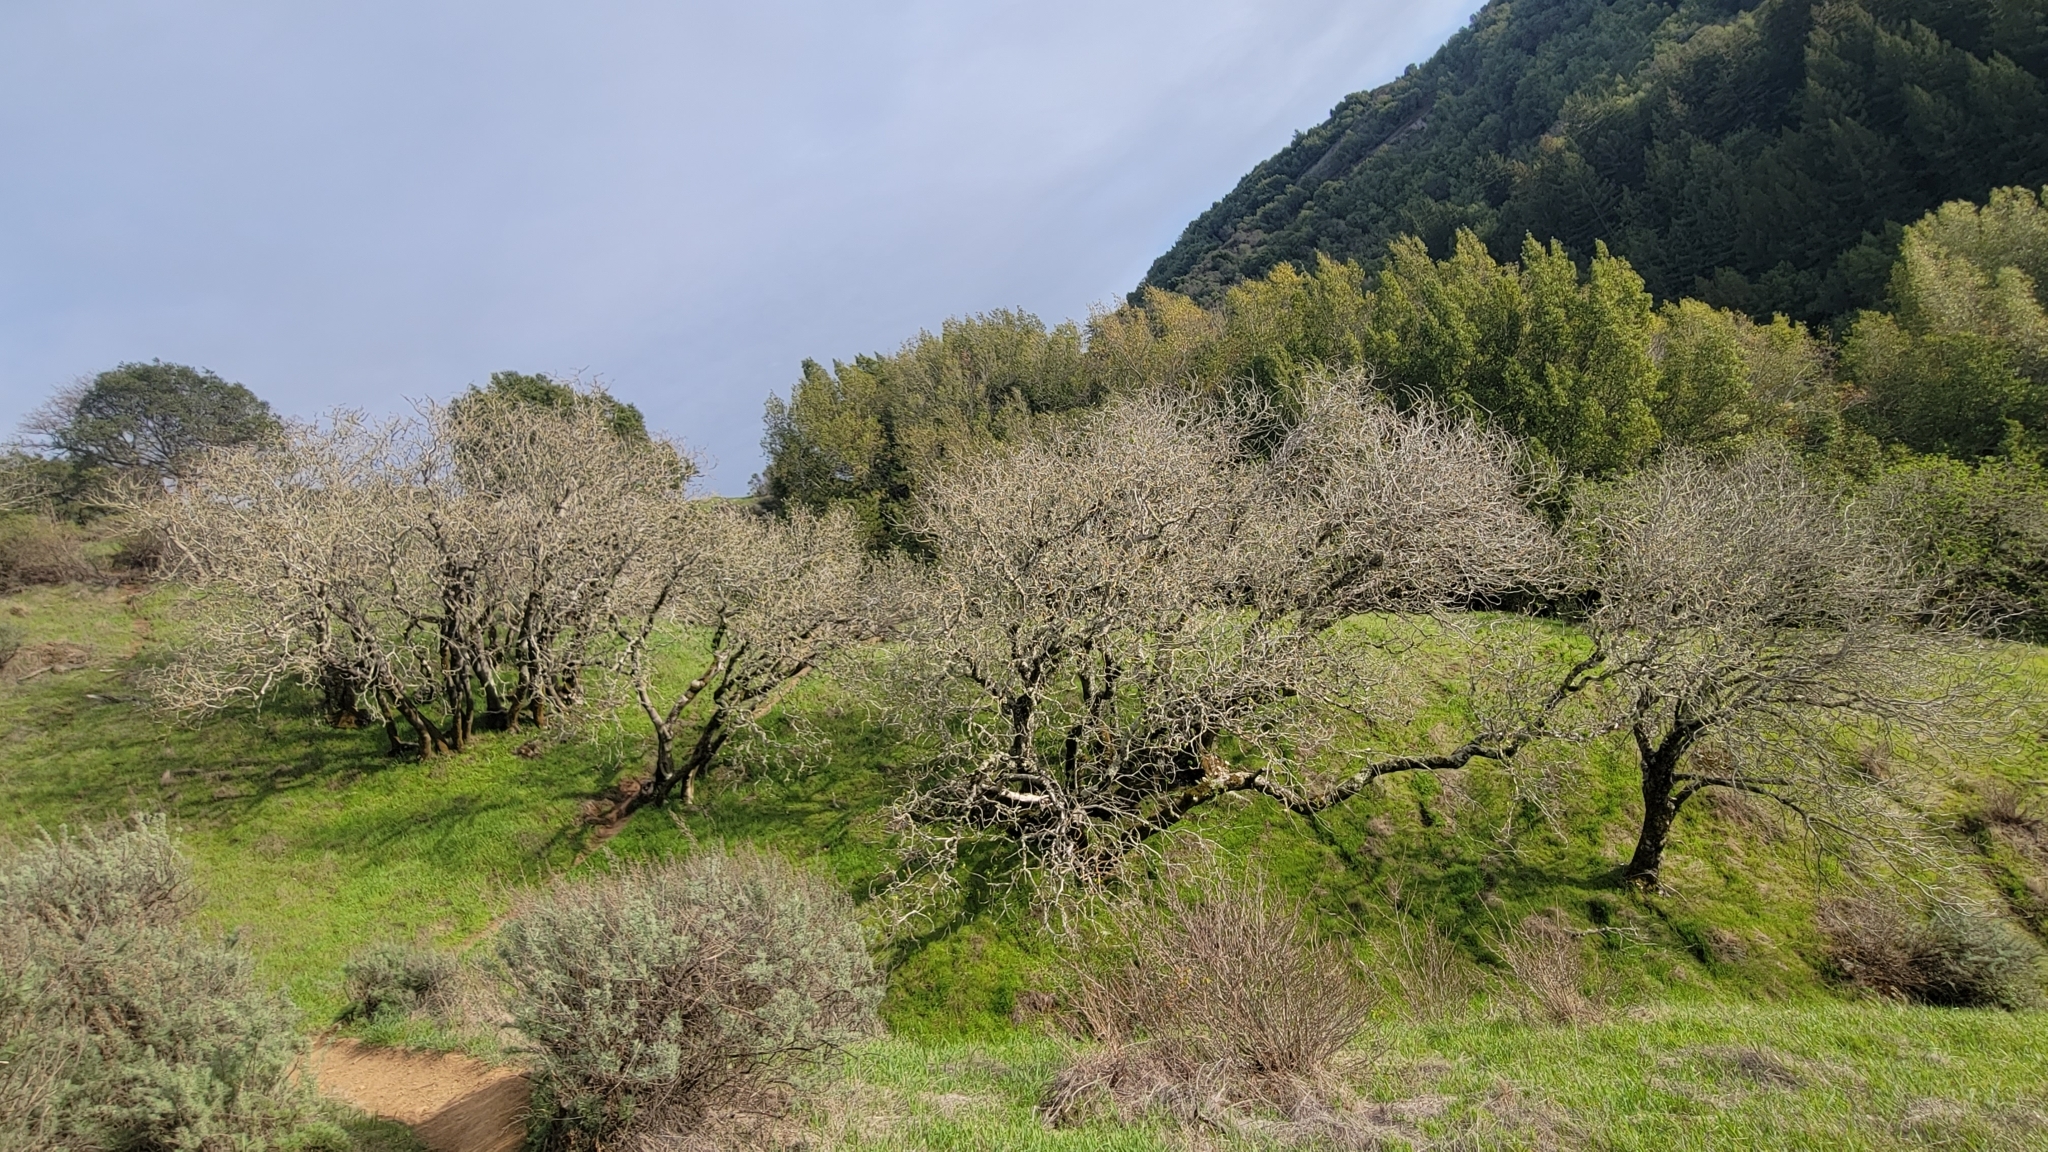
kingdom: Plantae
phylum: Tracheophyta
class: Magnoliopsida
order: Sapindales
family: Sapindaceae
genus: Aesculus
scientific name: Aesculus californica
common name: California buckeye
